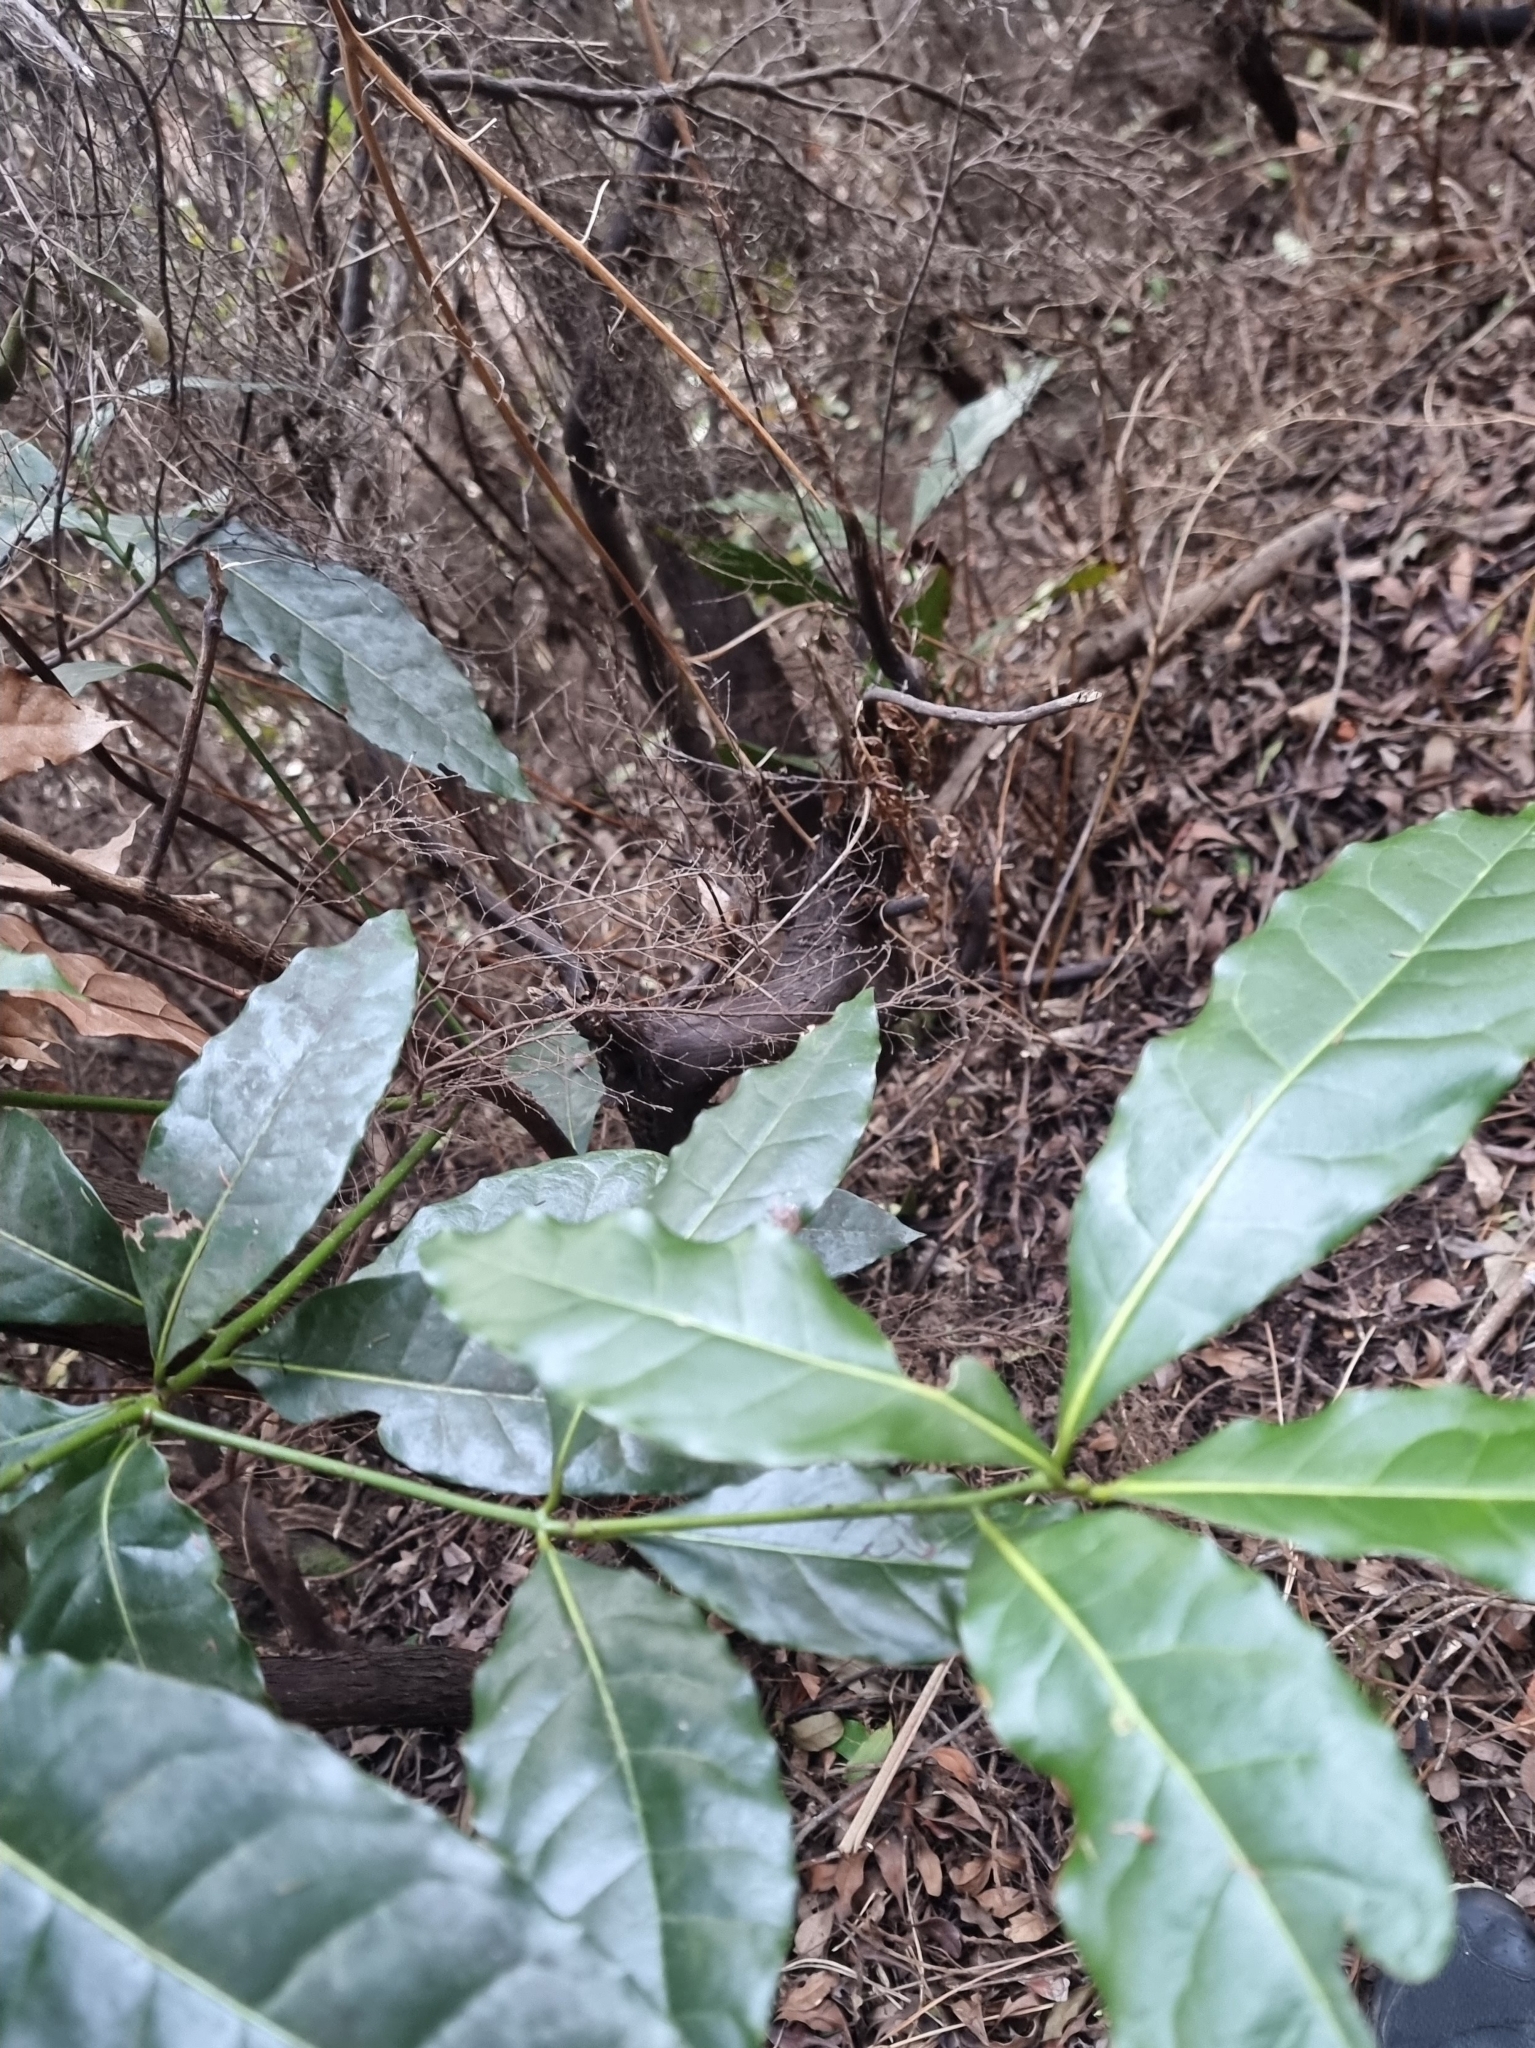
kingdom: Plantae
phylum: Tracheophyta
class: Magnoliopsida
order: Laurales
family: Lauraceae
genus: Apollonias
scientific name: Apollonias barbujana
